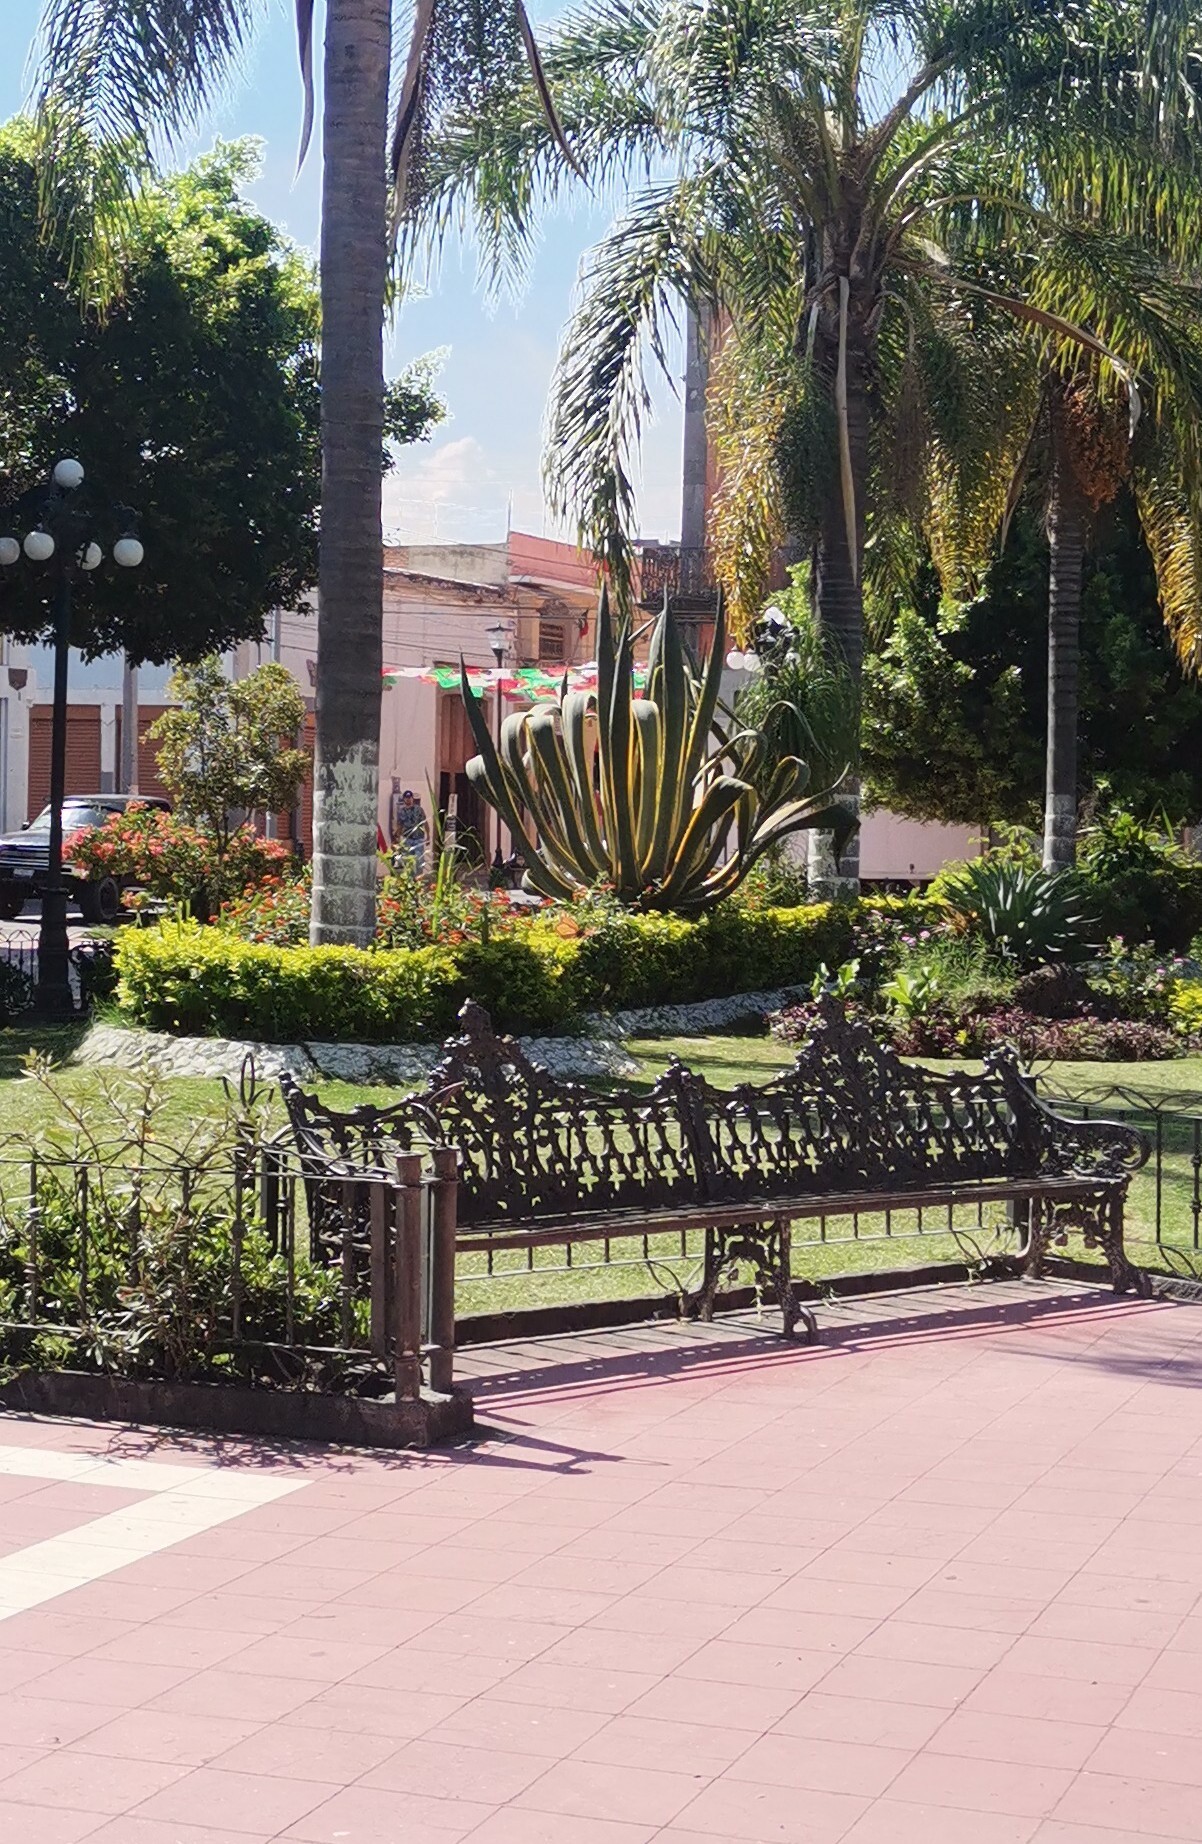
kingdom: Animalia
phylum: Arthropoda
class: Insecta
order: Lepidoptera
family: Nymphalidae
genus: Danaus
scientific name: Danaus plexippus
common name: Monarch
